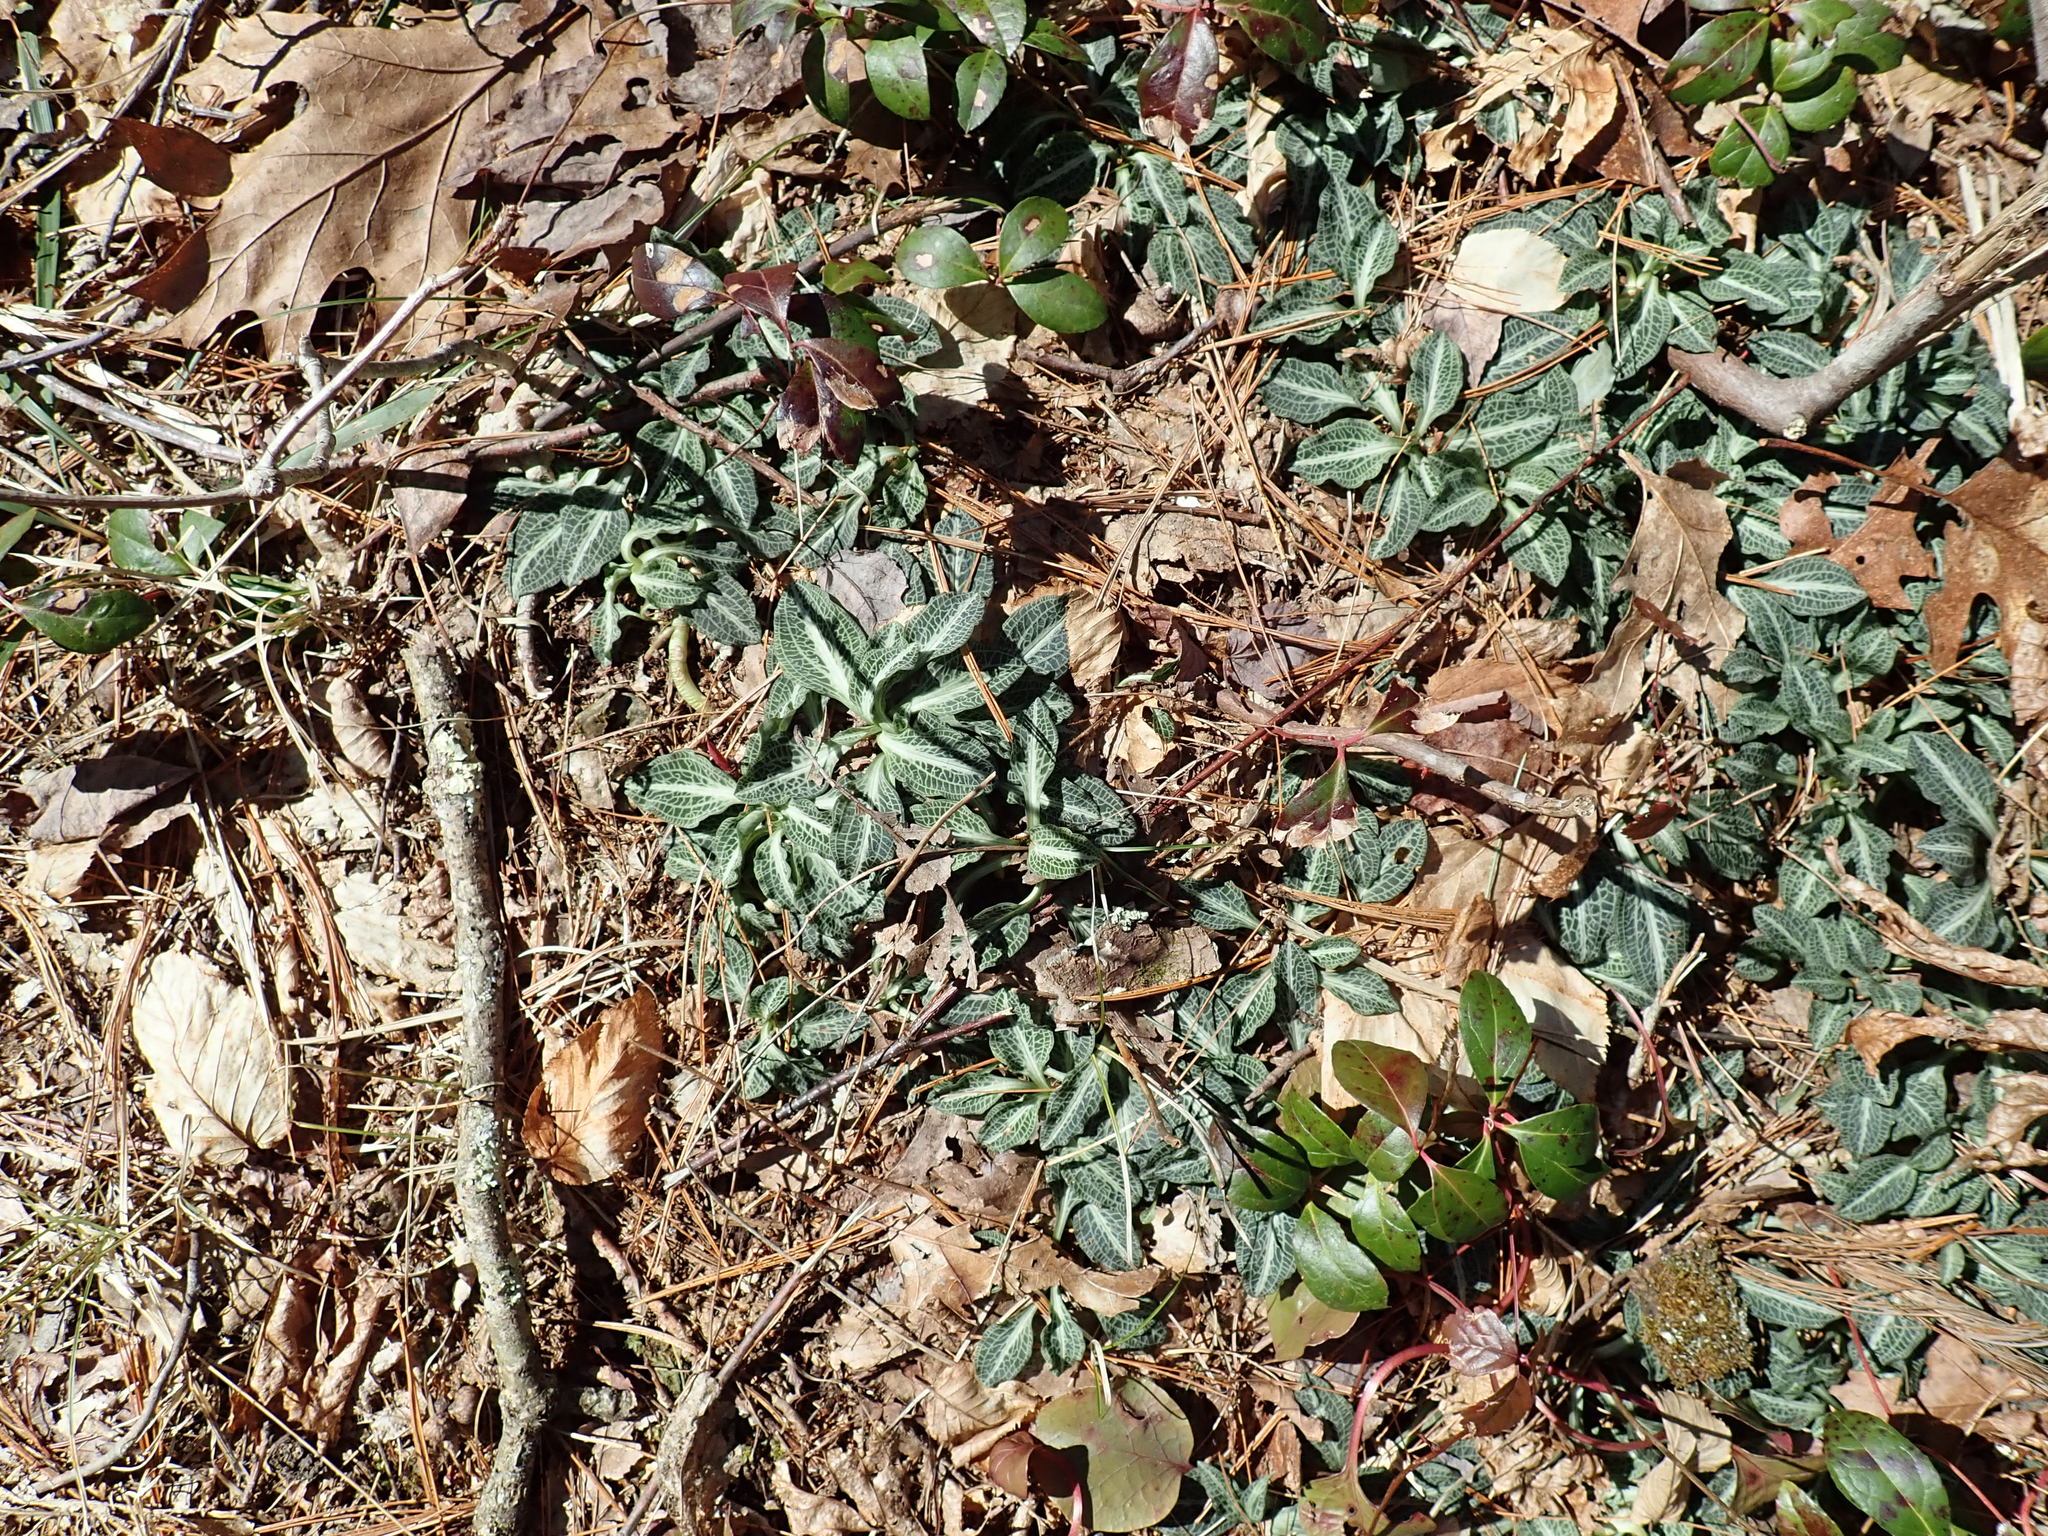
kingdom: Plantae
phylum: Tracheophyta
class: Liliopsida
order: Asparagales
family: Orchidaceae
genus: Goodyera
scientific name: Goodyera pubescens
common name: Downy rattlesnake-plantain
